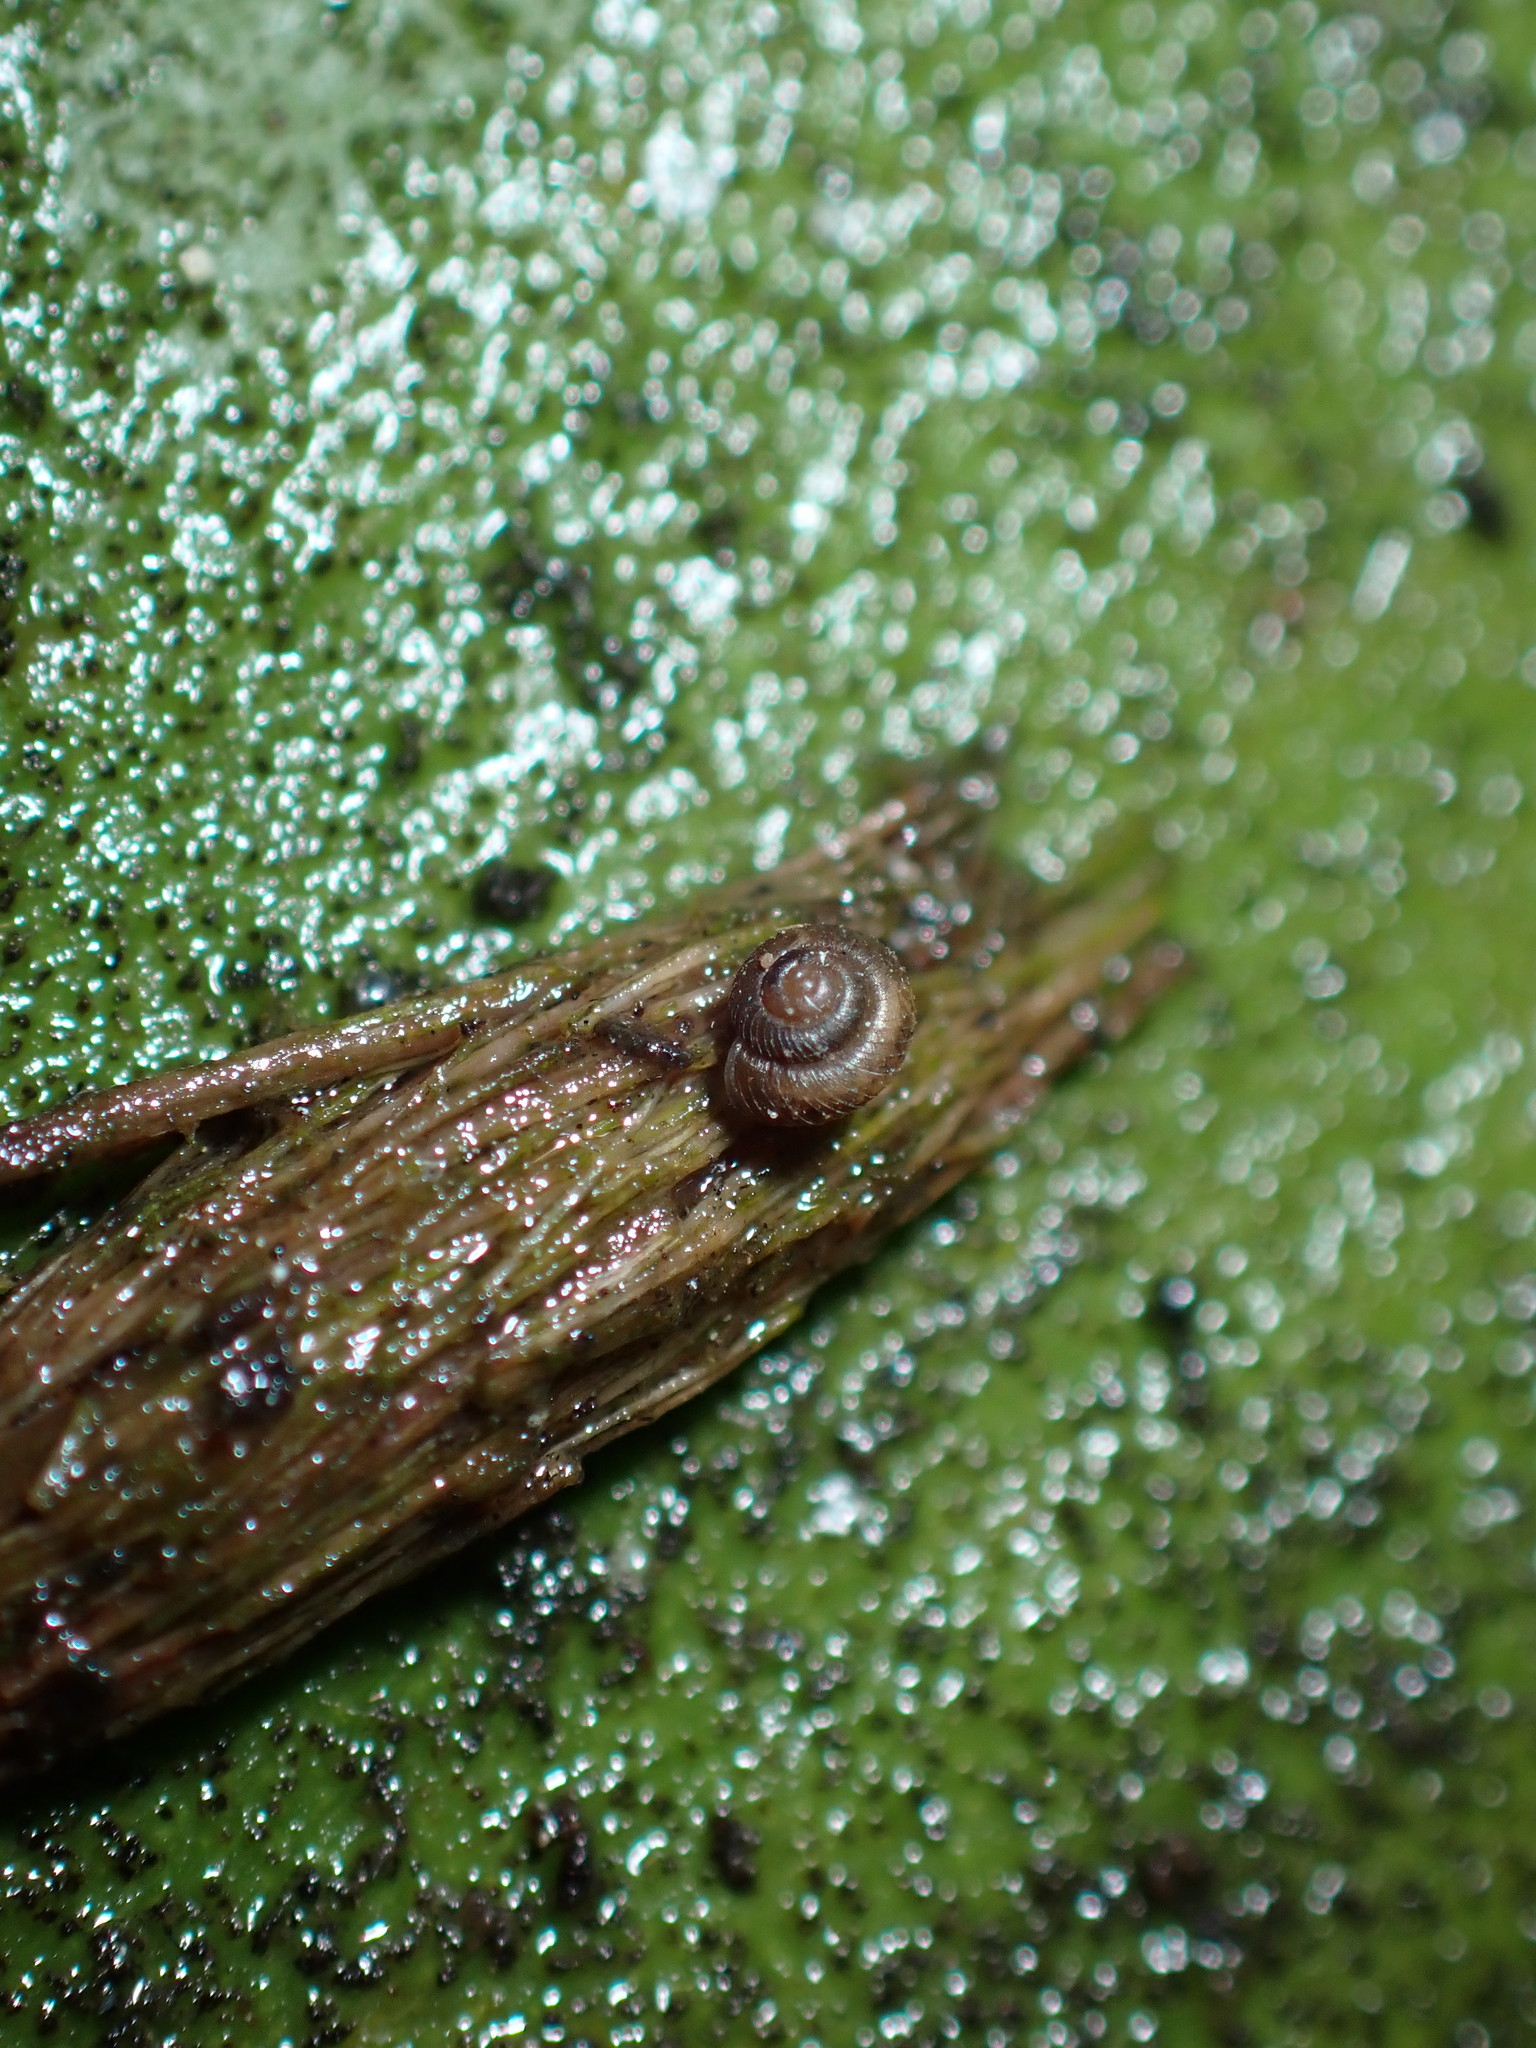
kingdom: Animalia
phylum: Mollusca
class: Gastropoda
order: Stylommatophora
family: Punctidae
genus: Paralaoma
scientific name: Paralaoma servilis
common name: Pinhead spot
